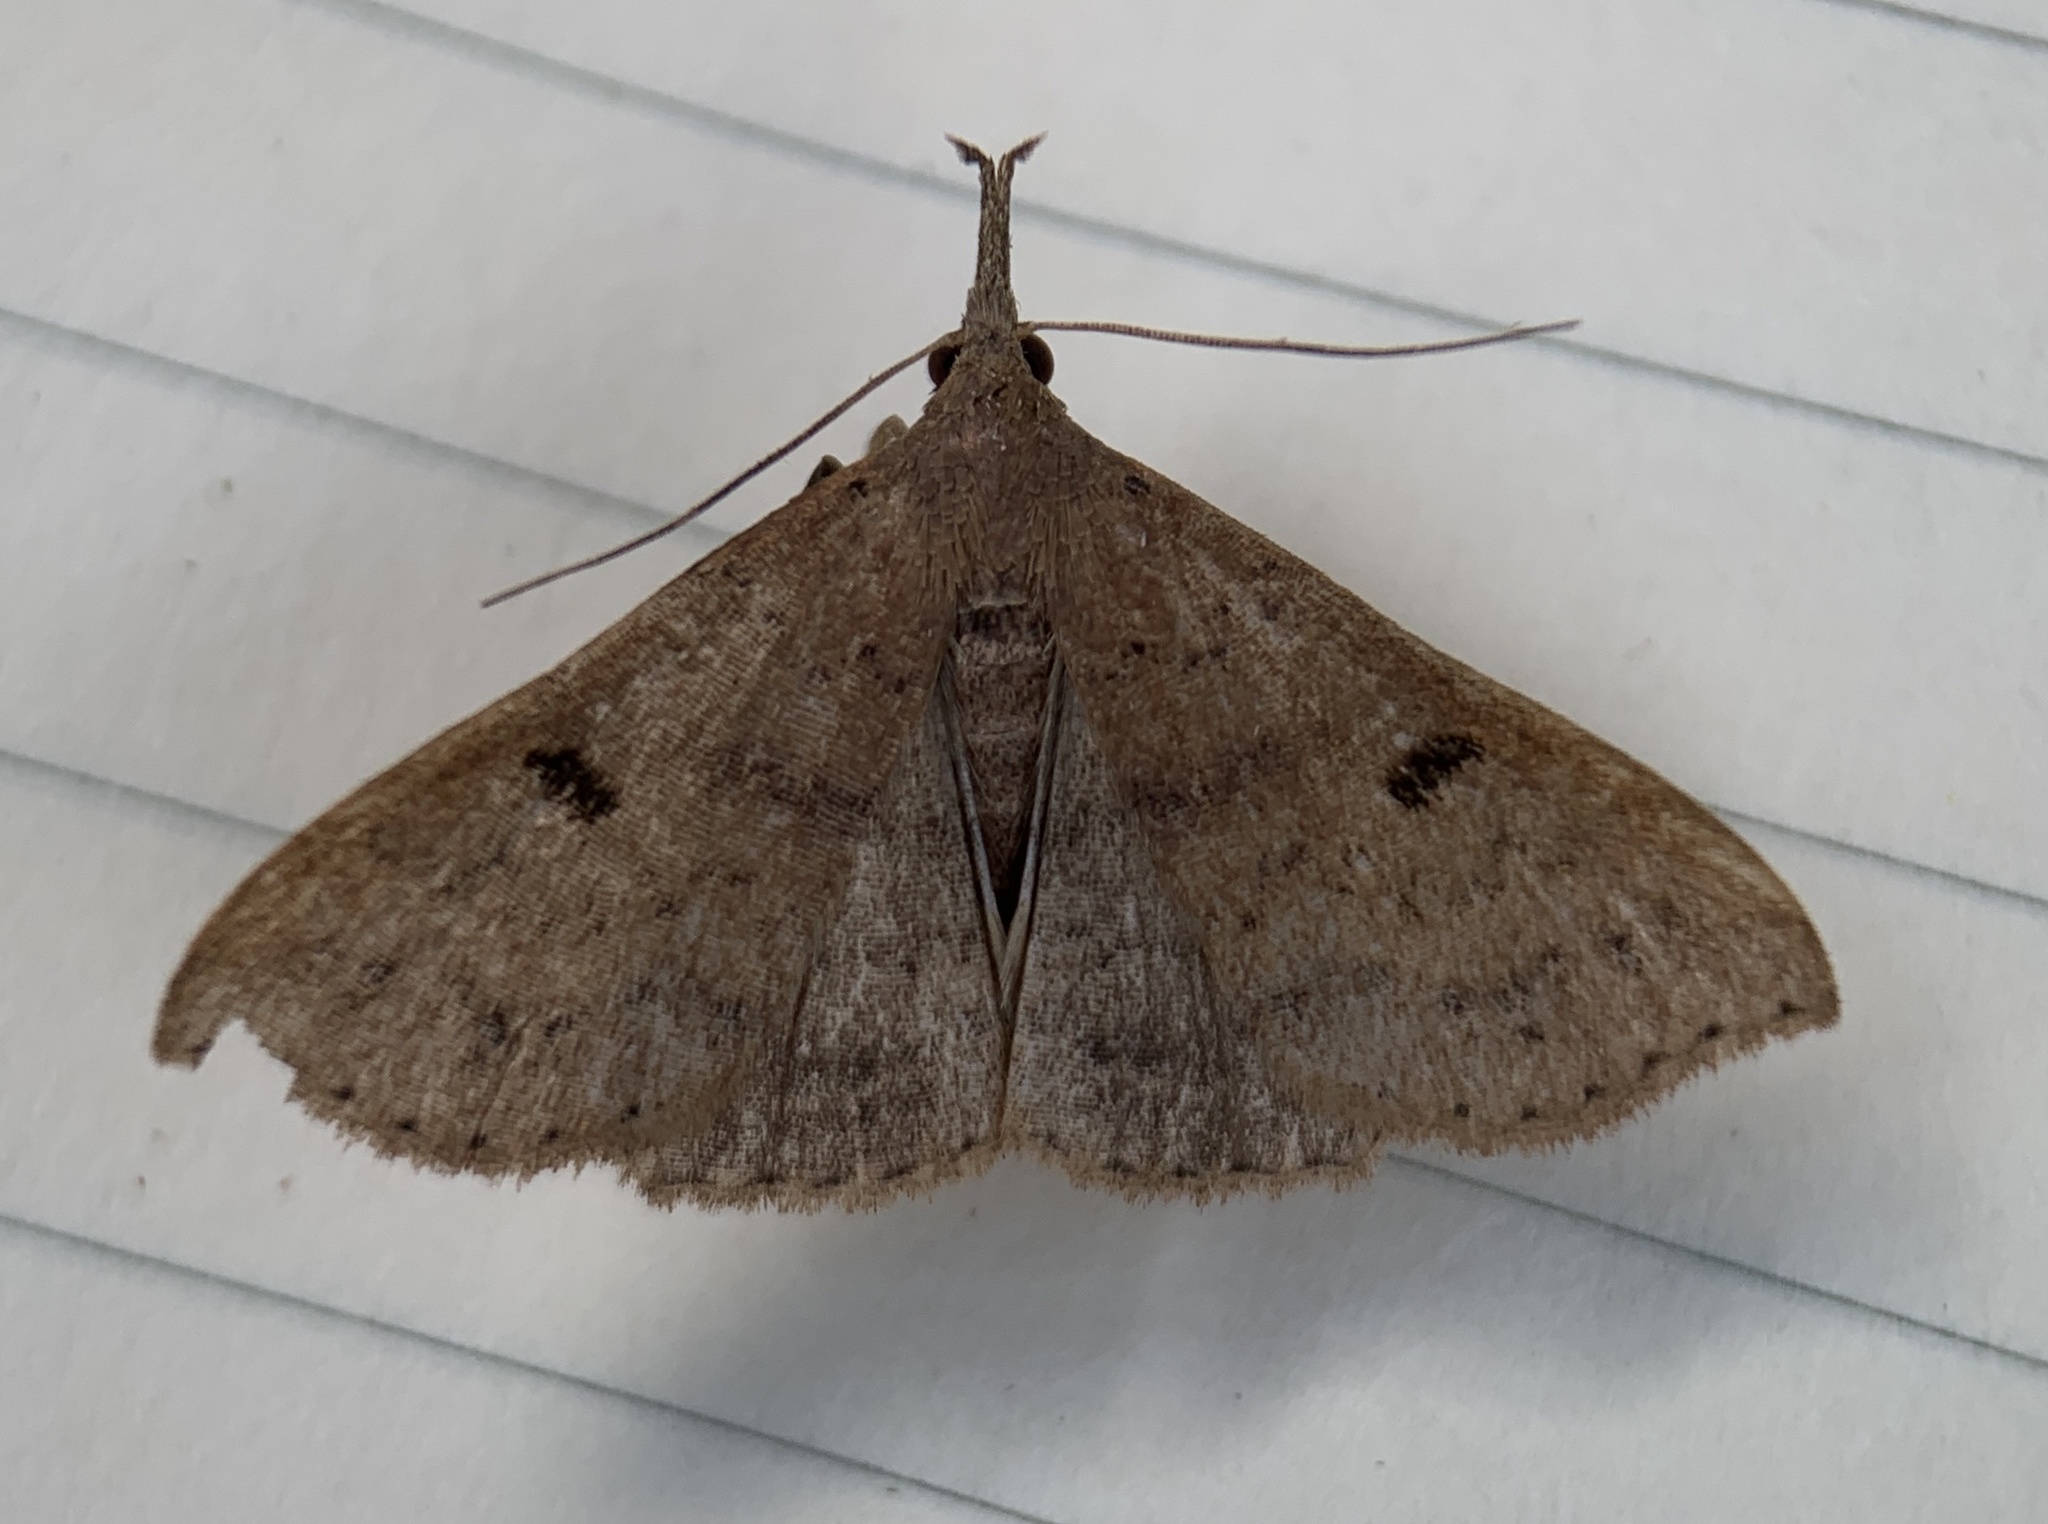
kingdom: Animalia
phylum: Arthropoda
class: Insecta
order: Lepidoptera
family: Erebidae
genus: Renia
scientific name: Renia fraternalis
